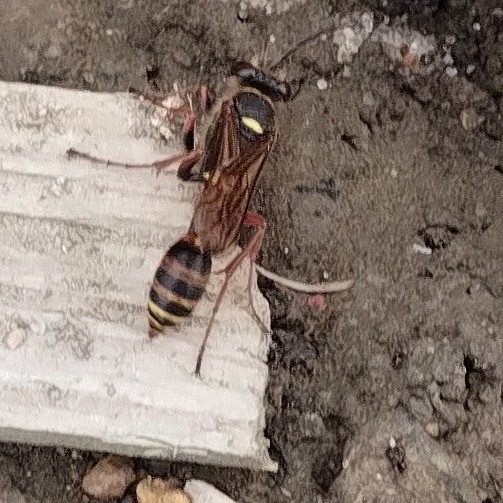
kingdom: Animalia
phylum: Arthropoda
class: Insecta
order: Hymenoptera
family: Sphecidae
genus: Sceliphron
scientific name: Sceliphron curvatum
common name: Pèlopèe
